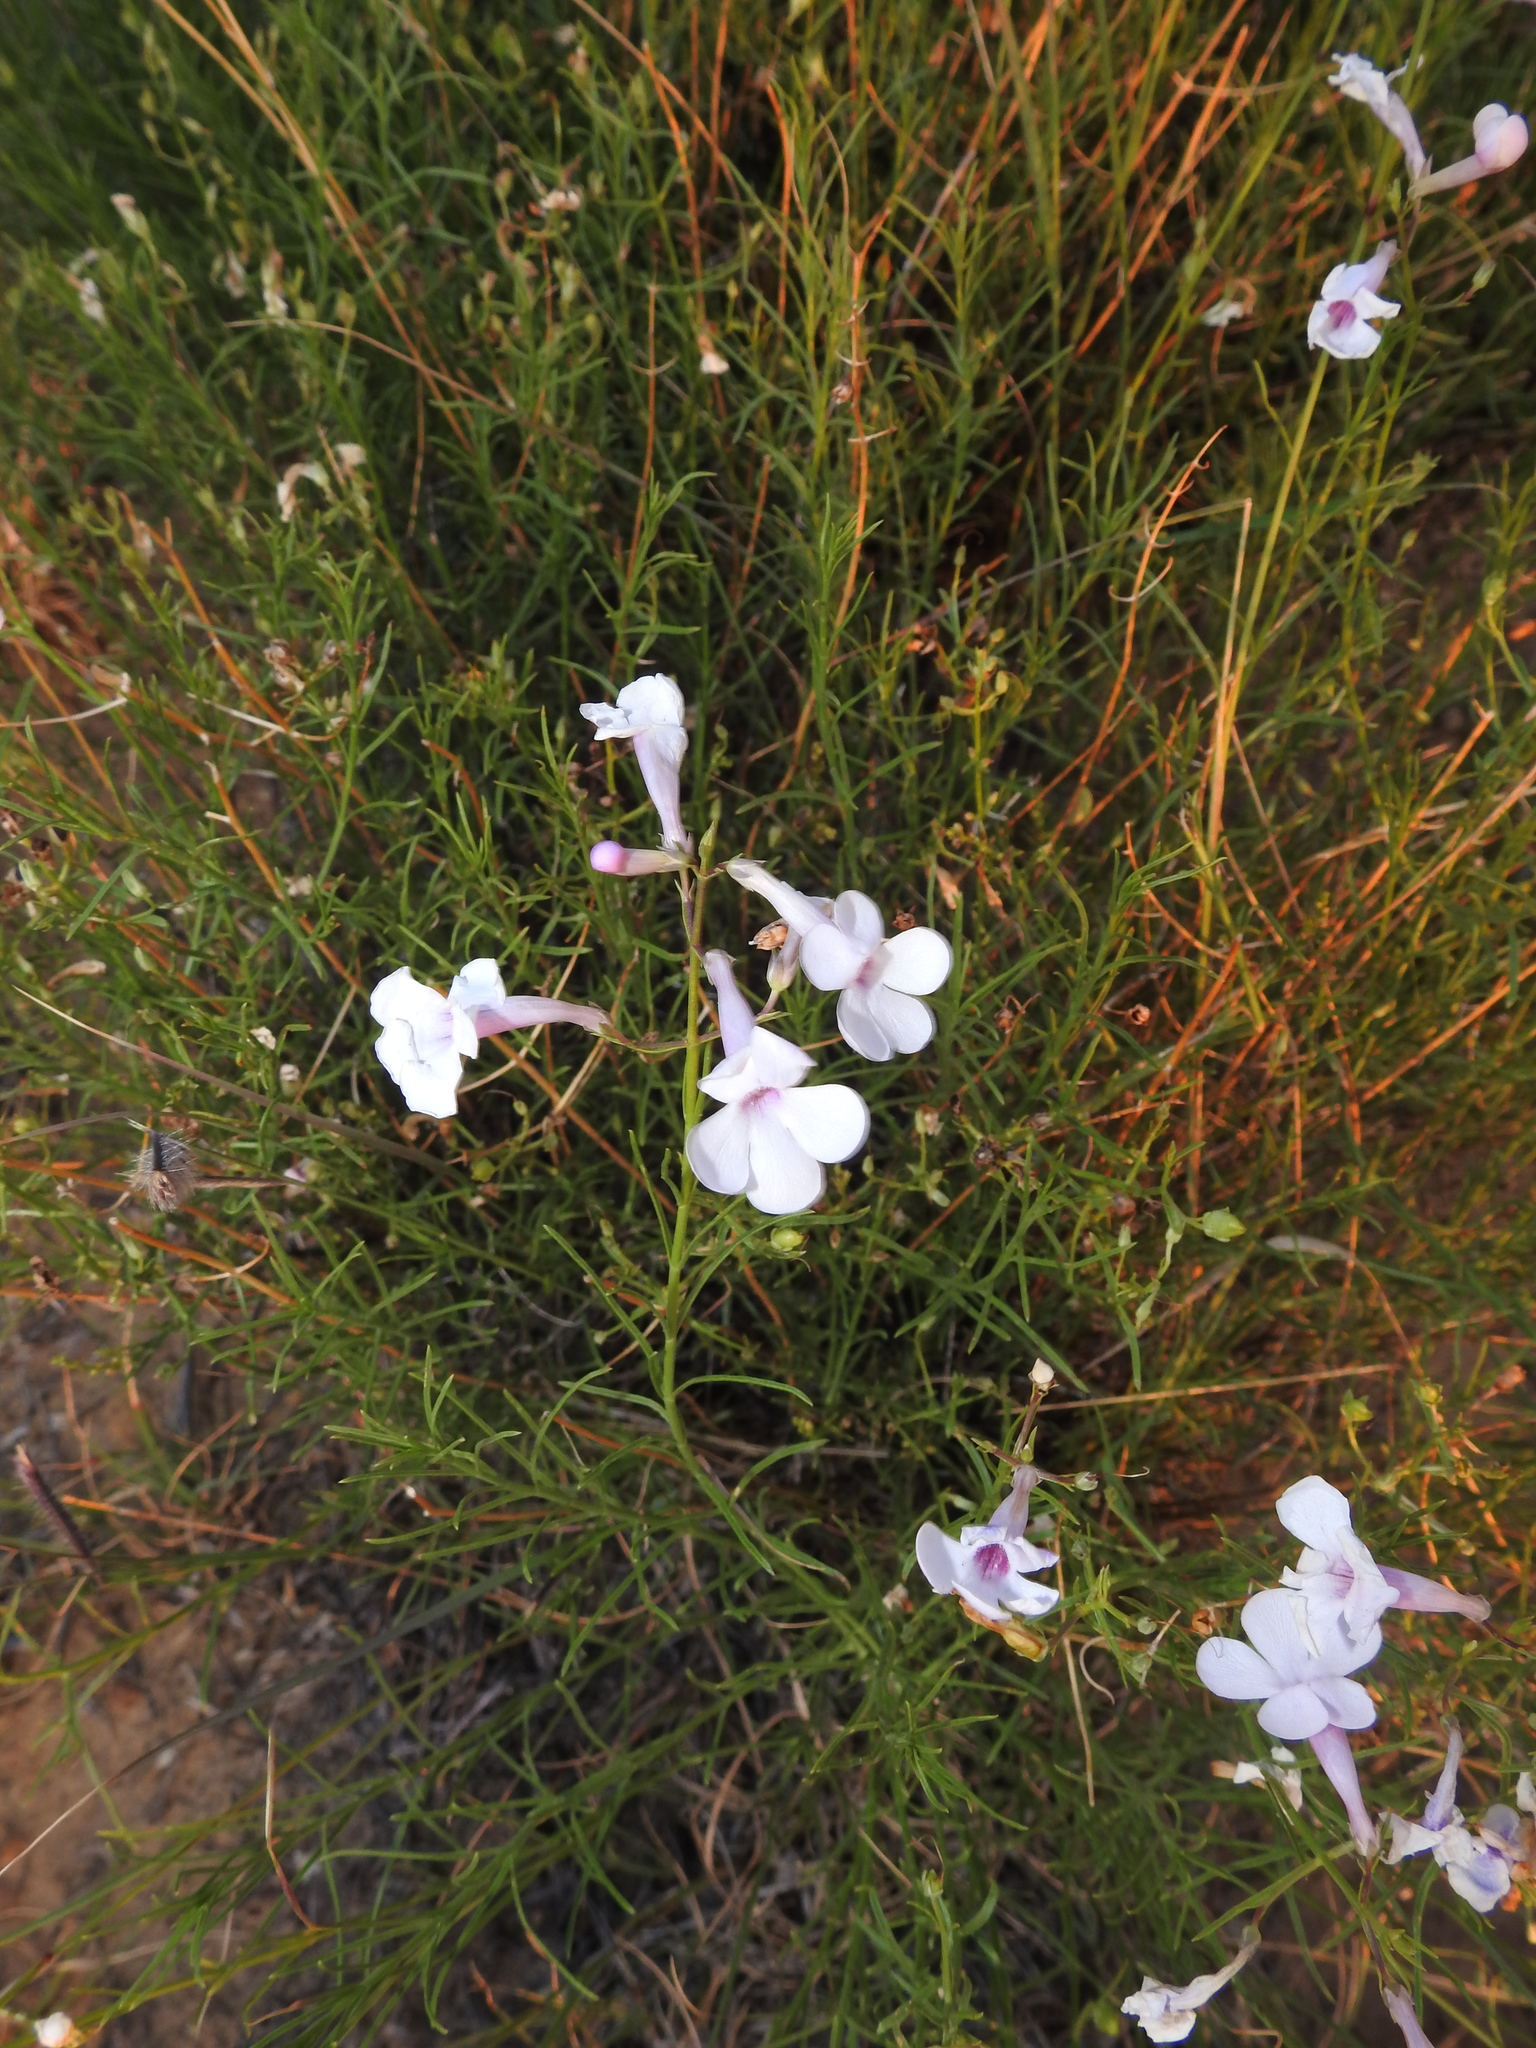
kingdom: Plantae
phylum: Tracheophyta
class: Magnoliopsida
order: Lamiales
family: Plantaginaceae
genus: Penstemon
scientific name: Penstemon ambiguus
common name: Bush penstemon
